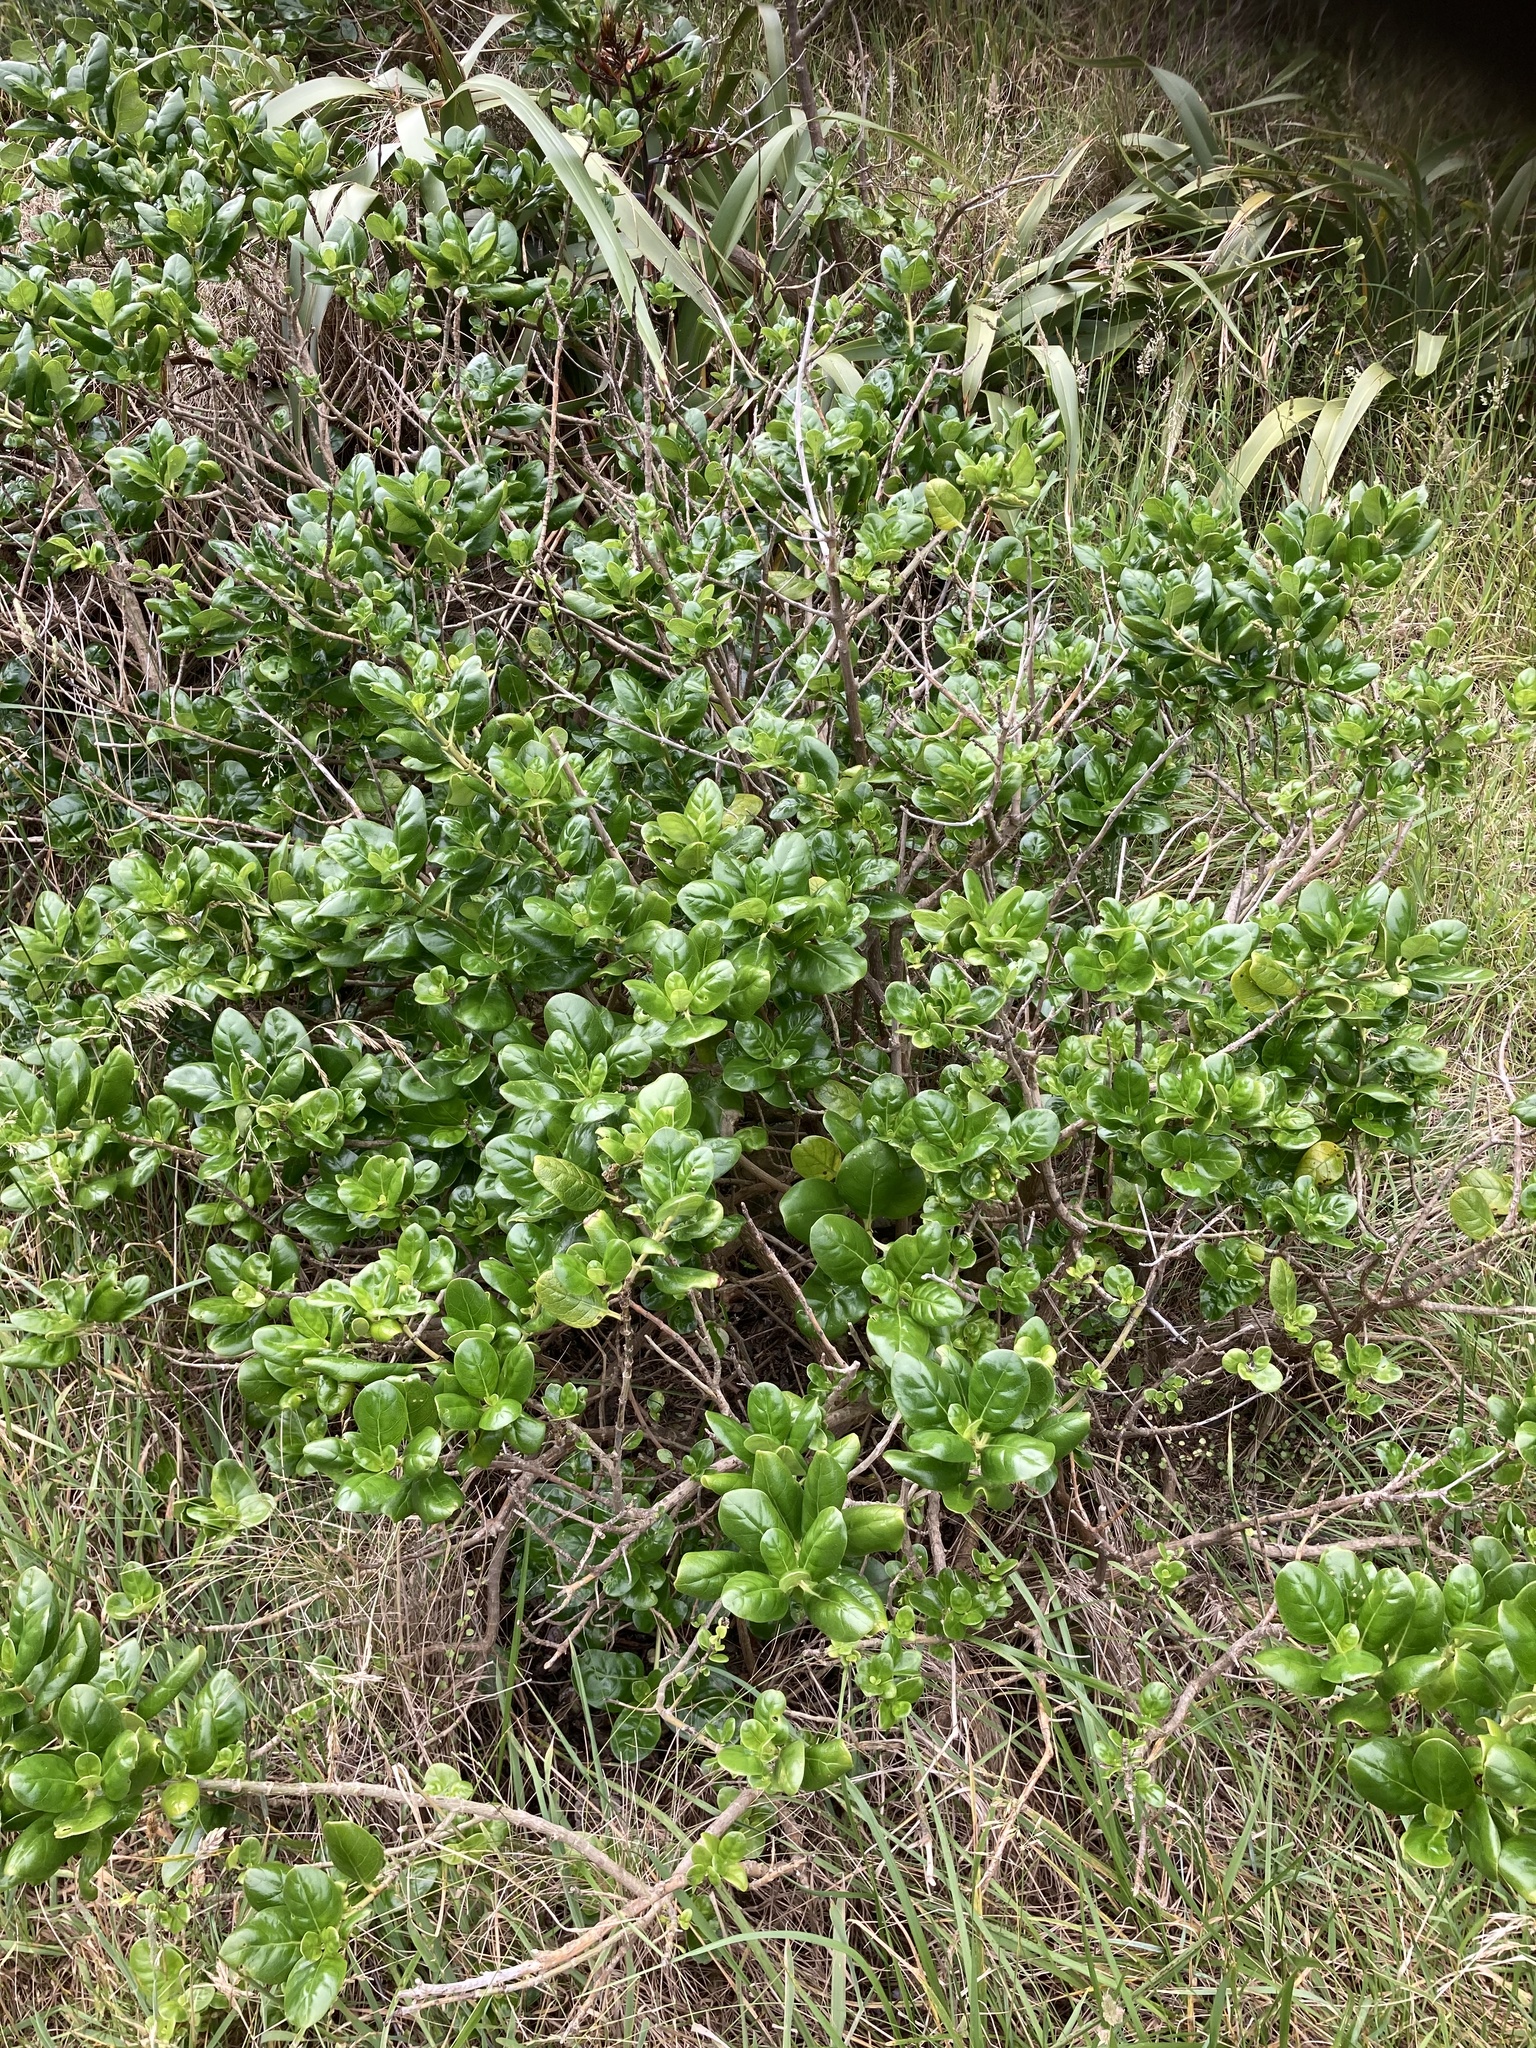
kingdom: Plantae
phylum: Tracheophyta
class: Magnoliopsida
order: Gentianales
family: Rubiaceae
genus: Coprosma
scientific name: Coprosma repens
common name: Tree bedstraw
